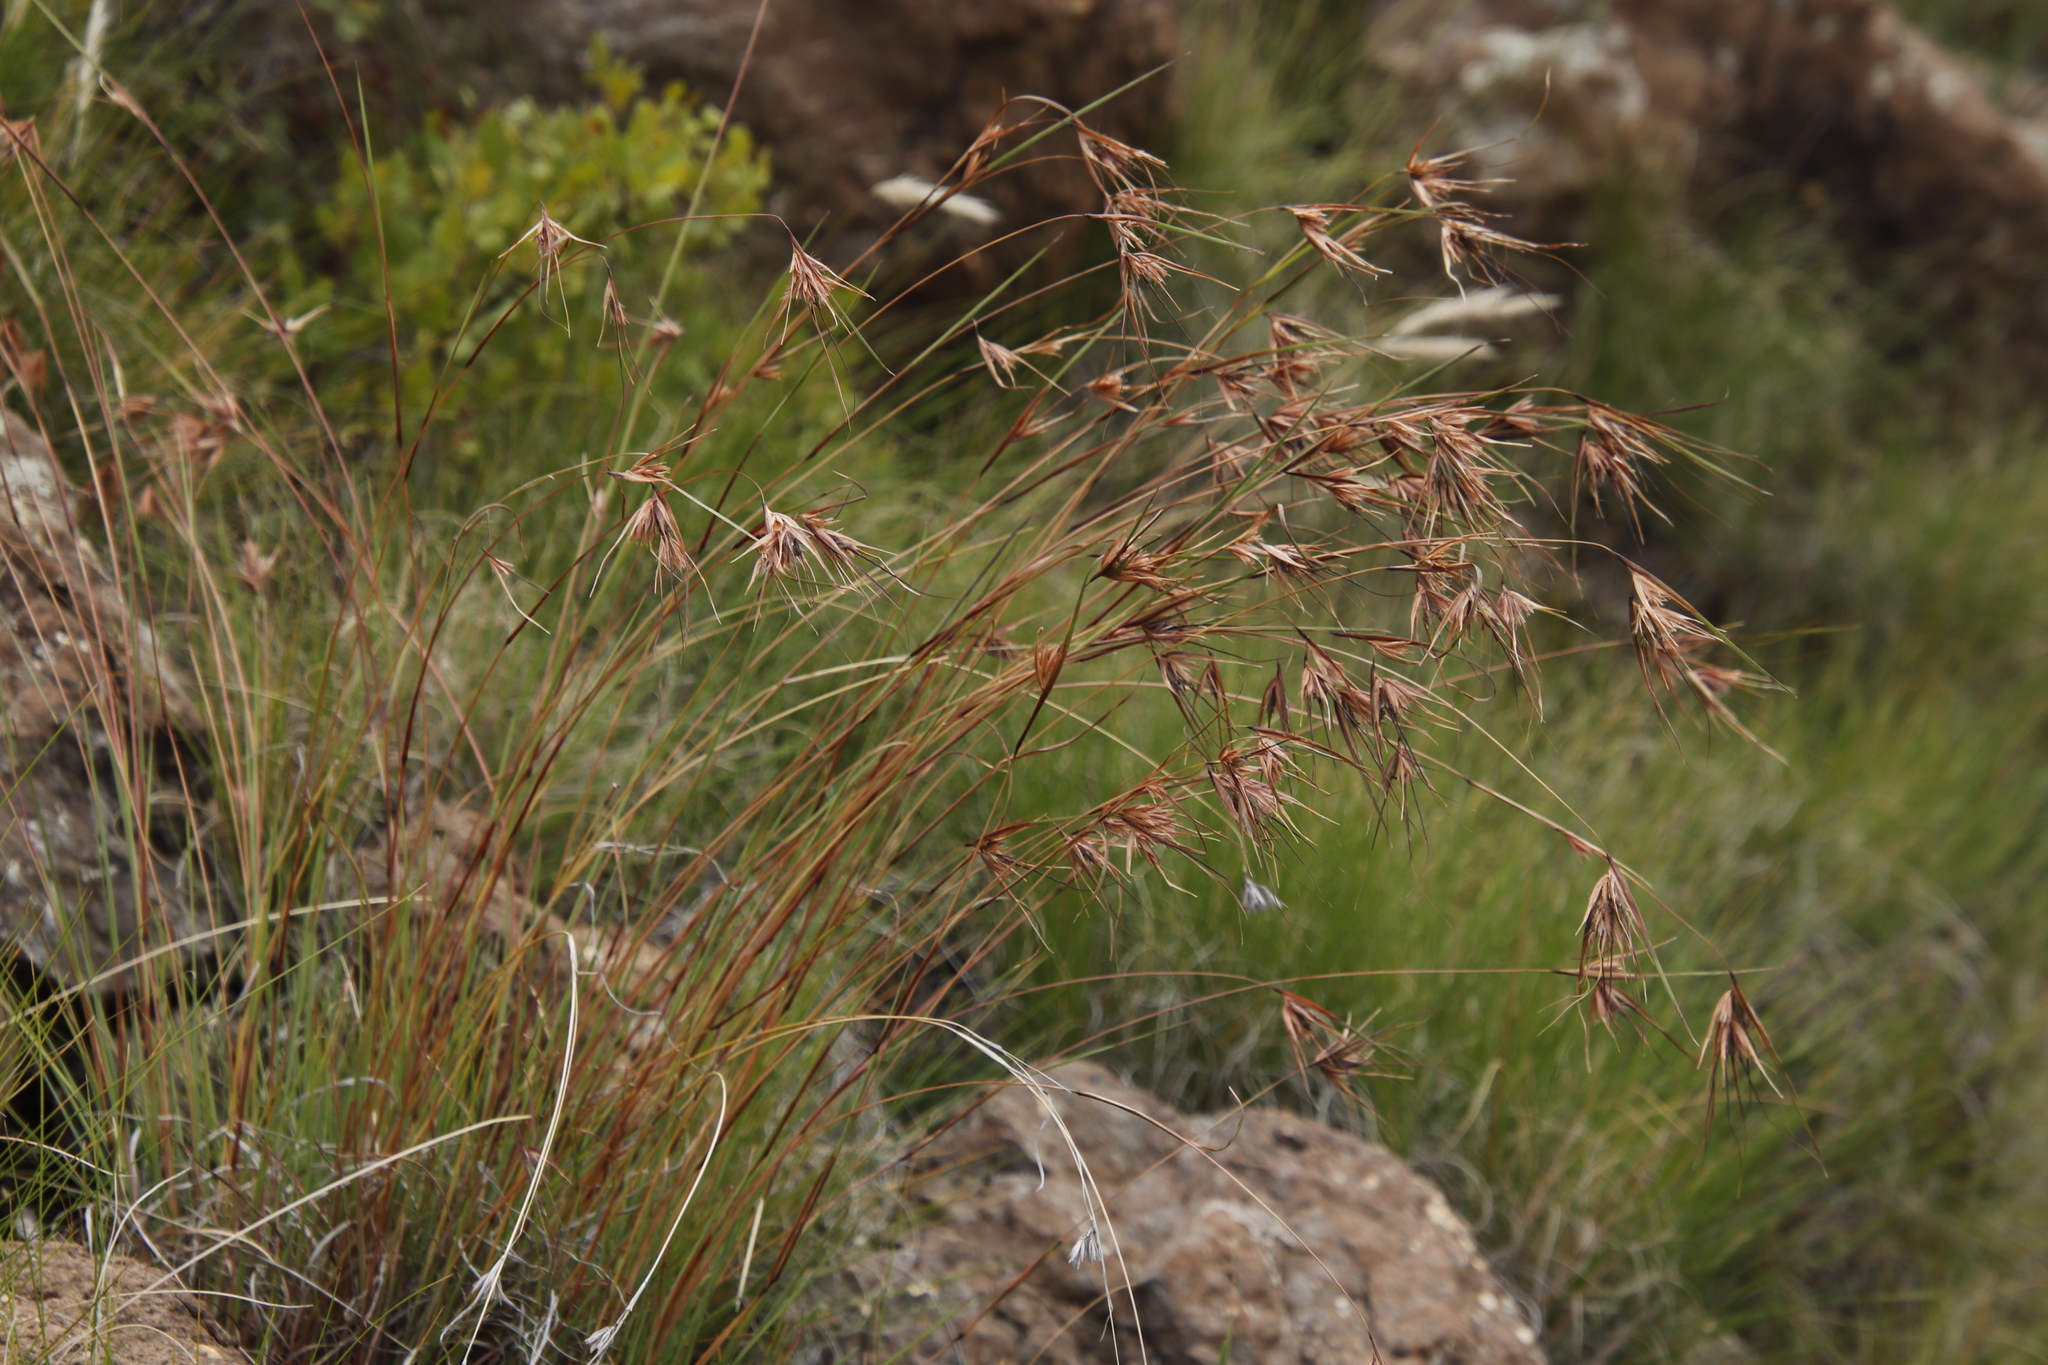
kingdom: Plantae
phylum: Tracheophyta
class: Liliopsida
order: Poales
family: Poaceae
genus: Themeda
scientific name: Themeda triandra
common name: Kangaroo grass
